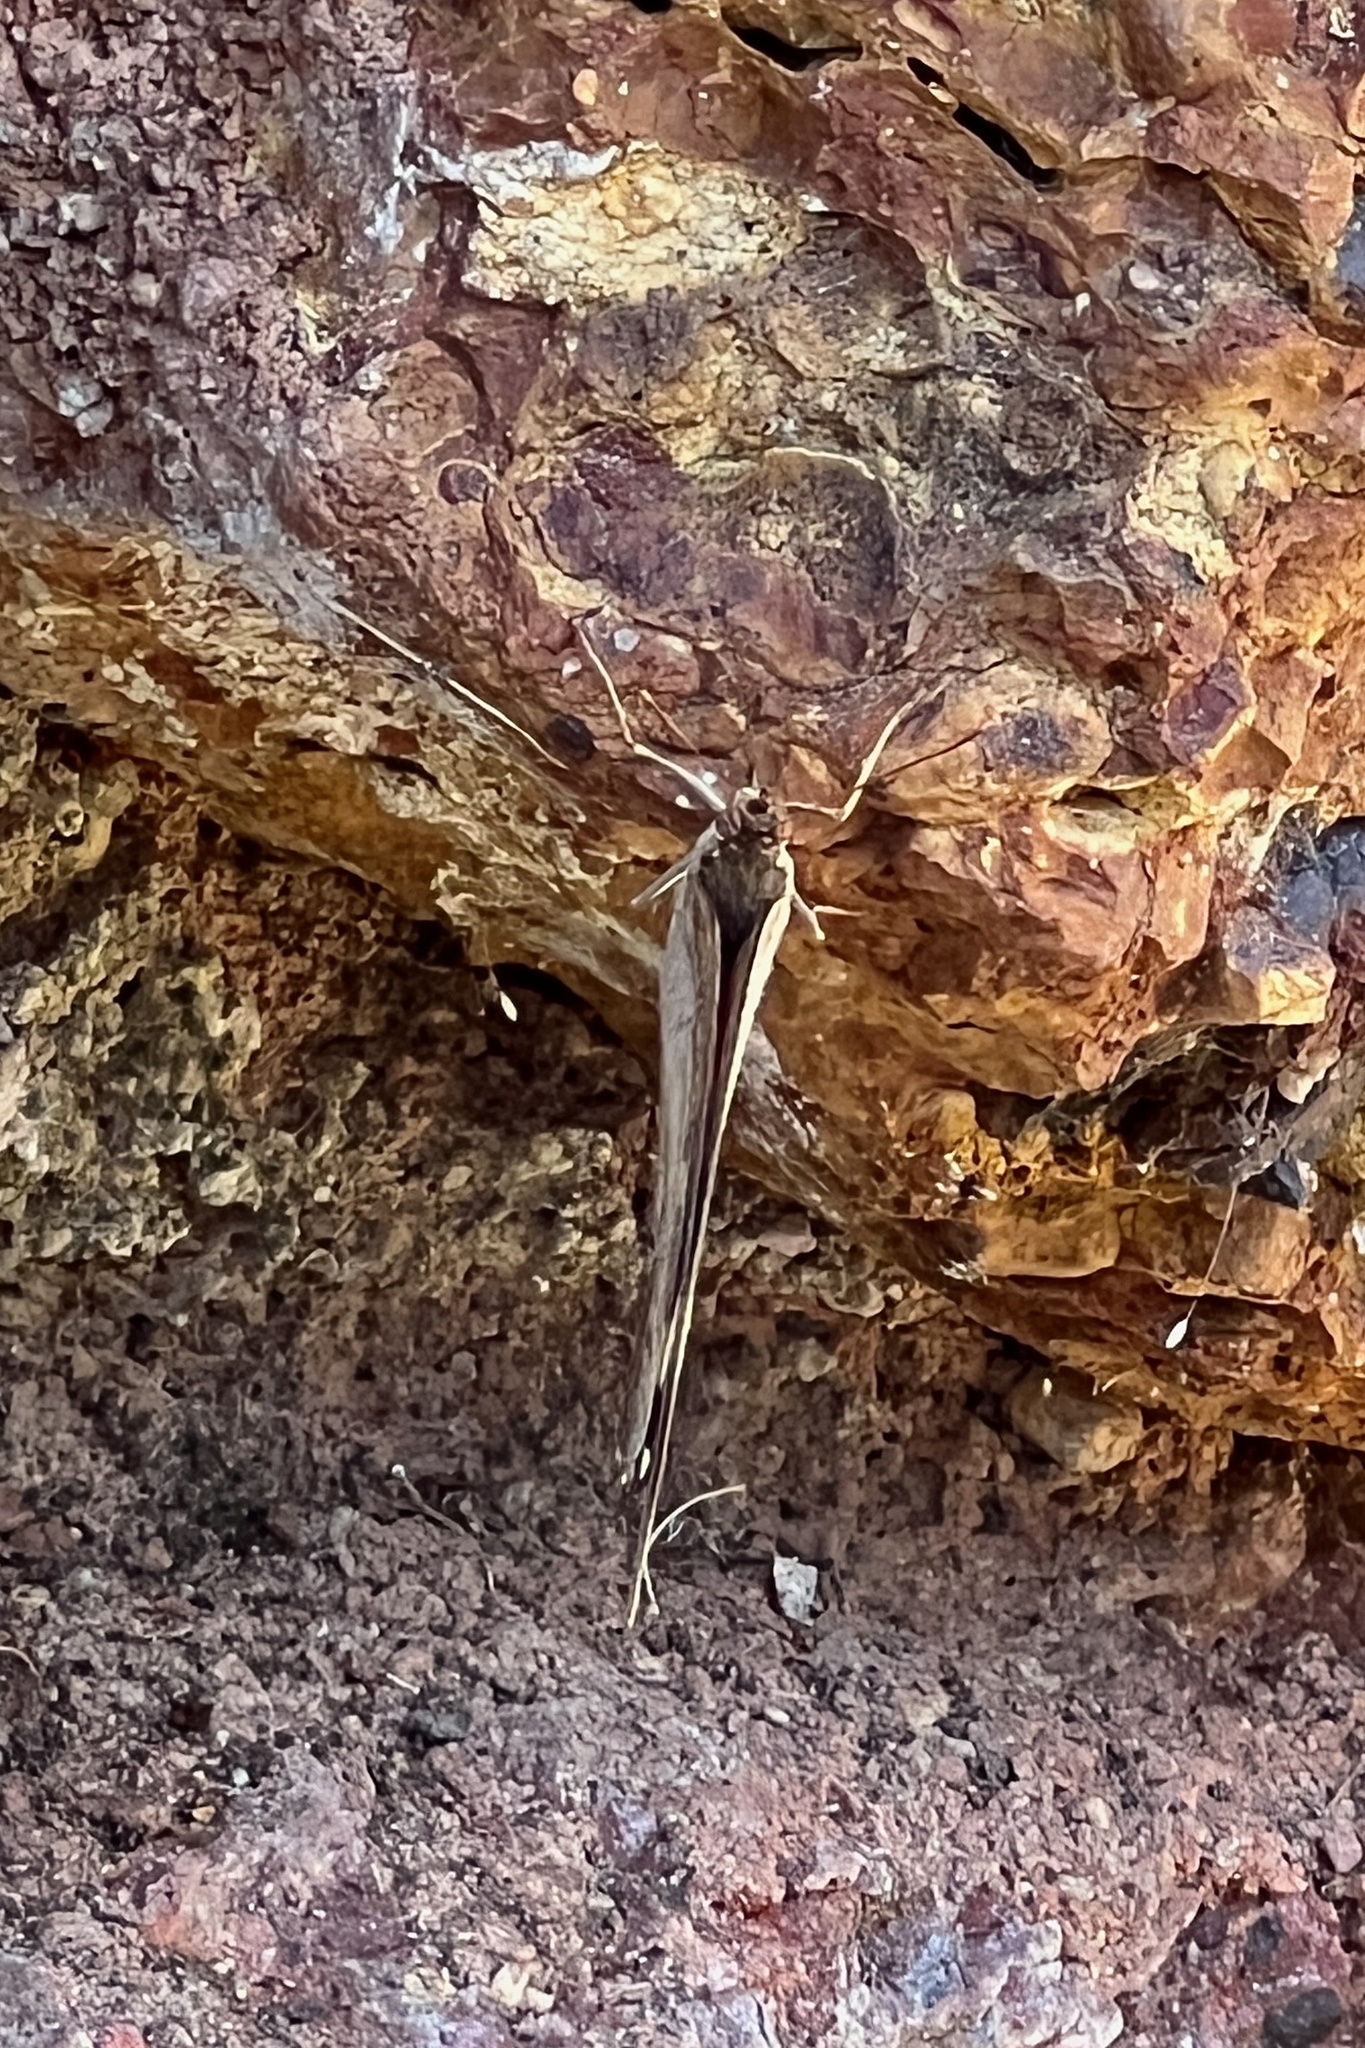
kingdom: Animalia
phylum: Arthropoda
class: Insecta
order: Lepidoptera
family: Nymphalidae
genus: Heteronympha
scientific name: Heteronympha merope
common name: Common brown
